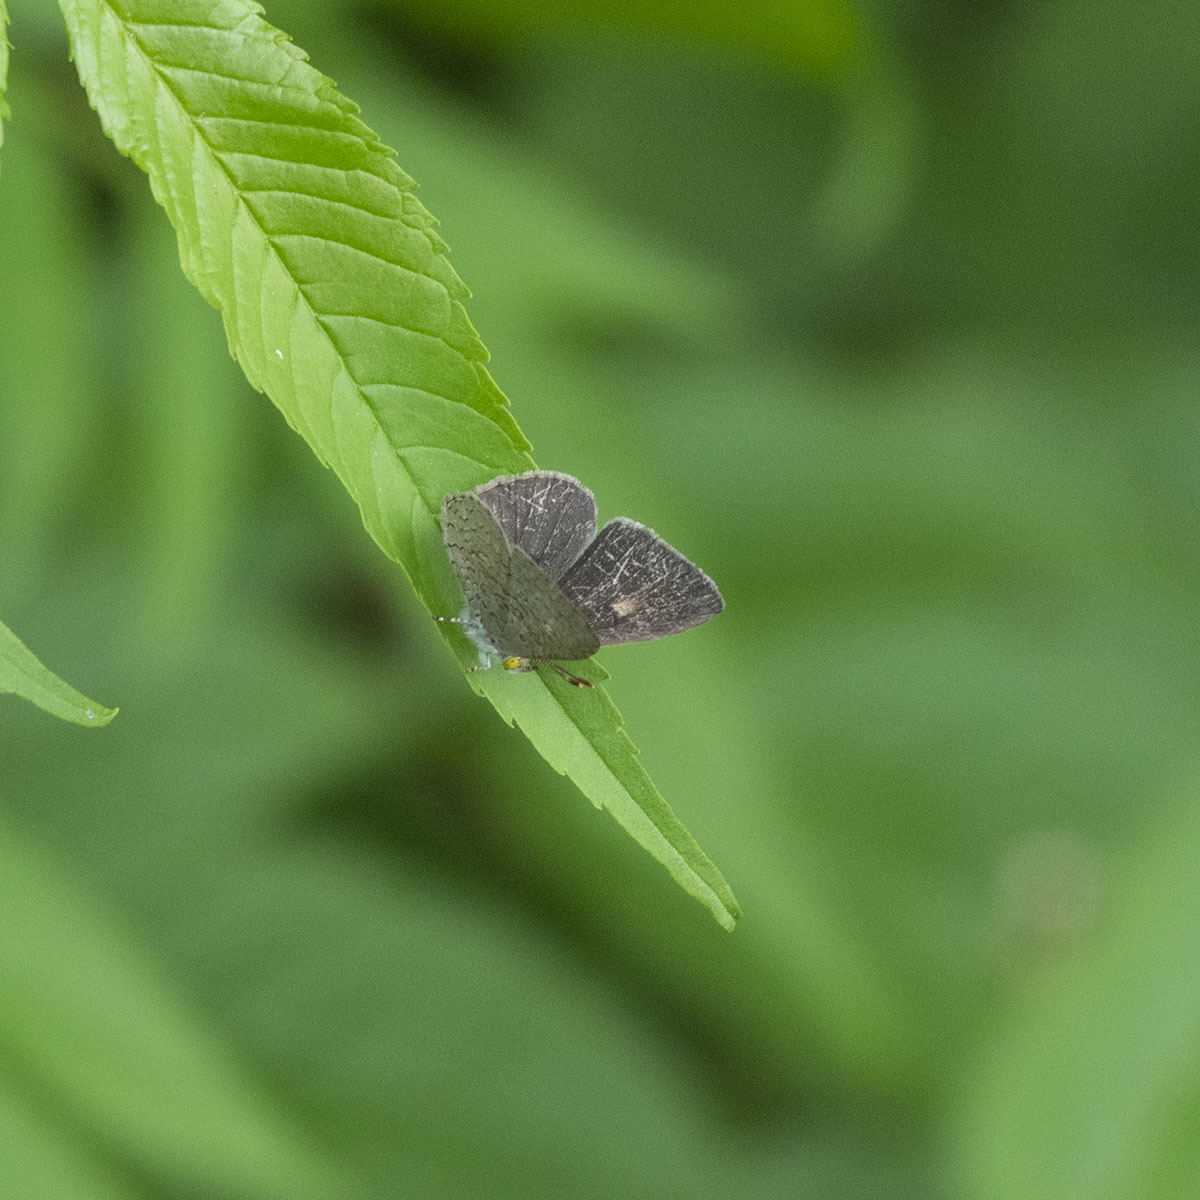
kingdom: Animalia
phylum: Arthropoda
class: Insecta
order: Lepidoptera
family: Lycaenidae
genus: Spalgis
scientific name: Spalgis epius
